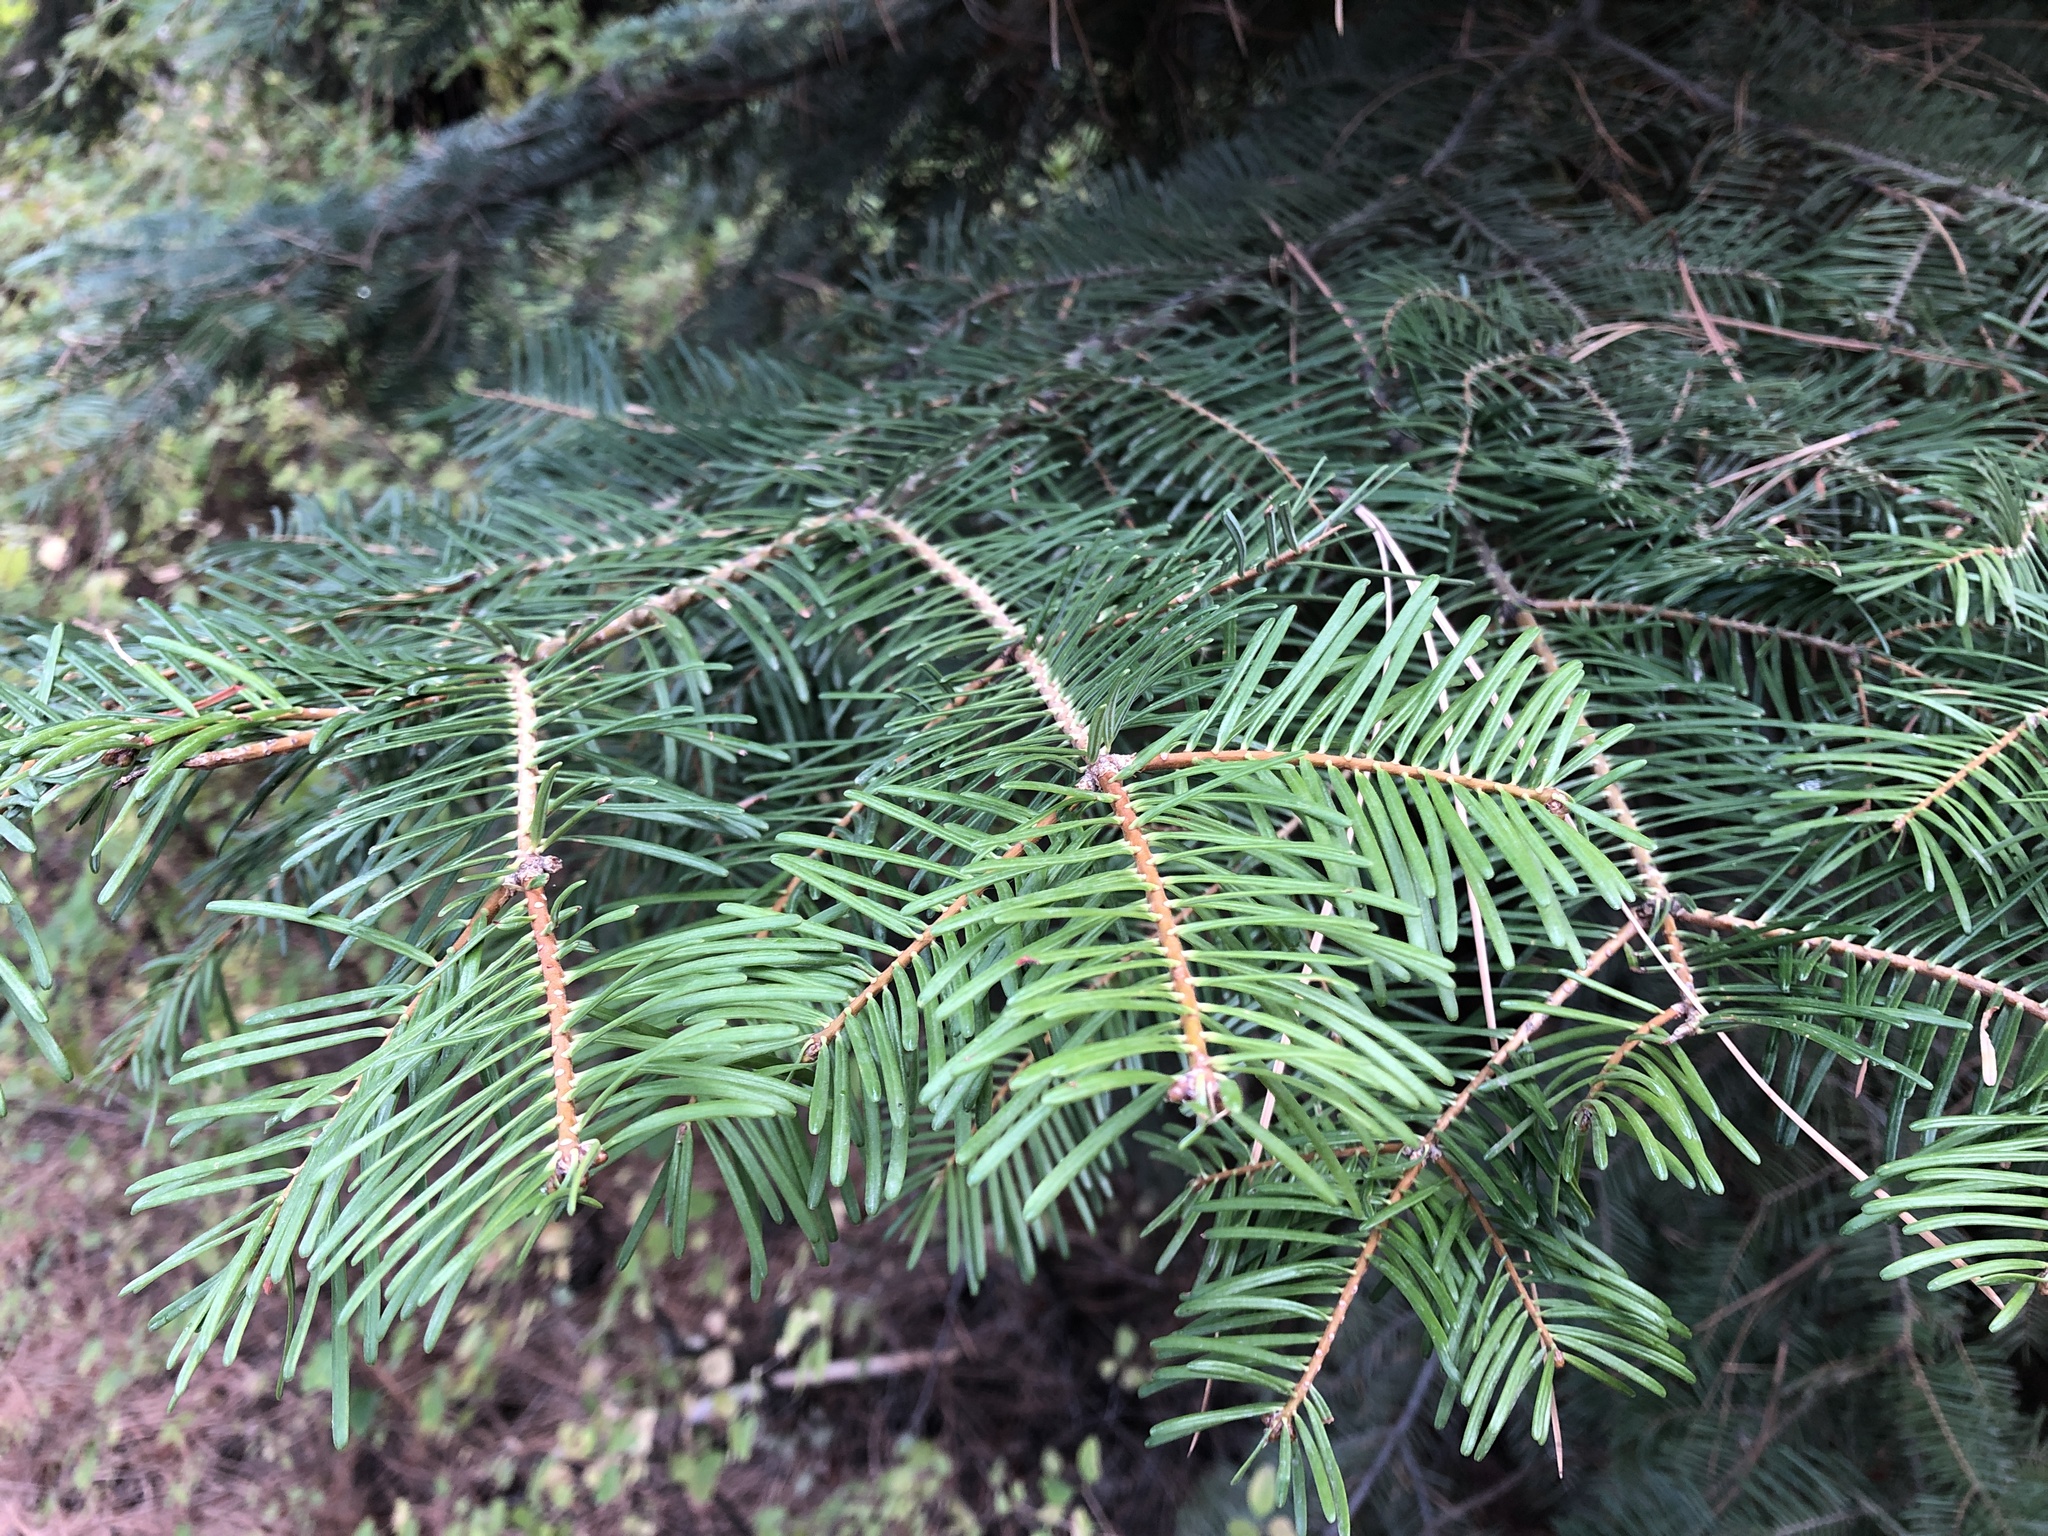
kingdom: Plantae
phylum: Tracheophyta
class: Pinopsida
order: Pinales
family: Pinaceae
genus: Abies
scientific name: Abies grandis
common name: Giant fir
